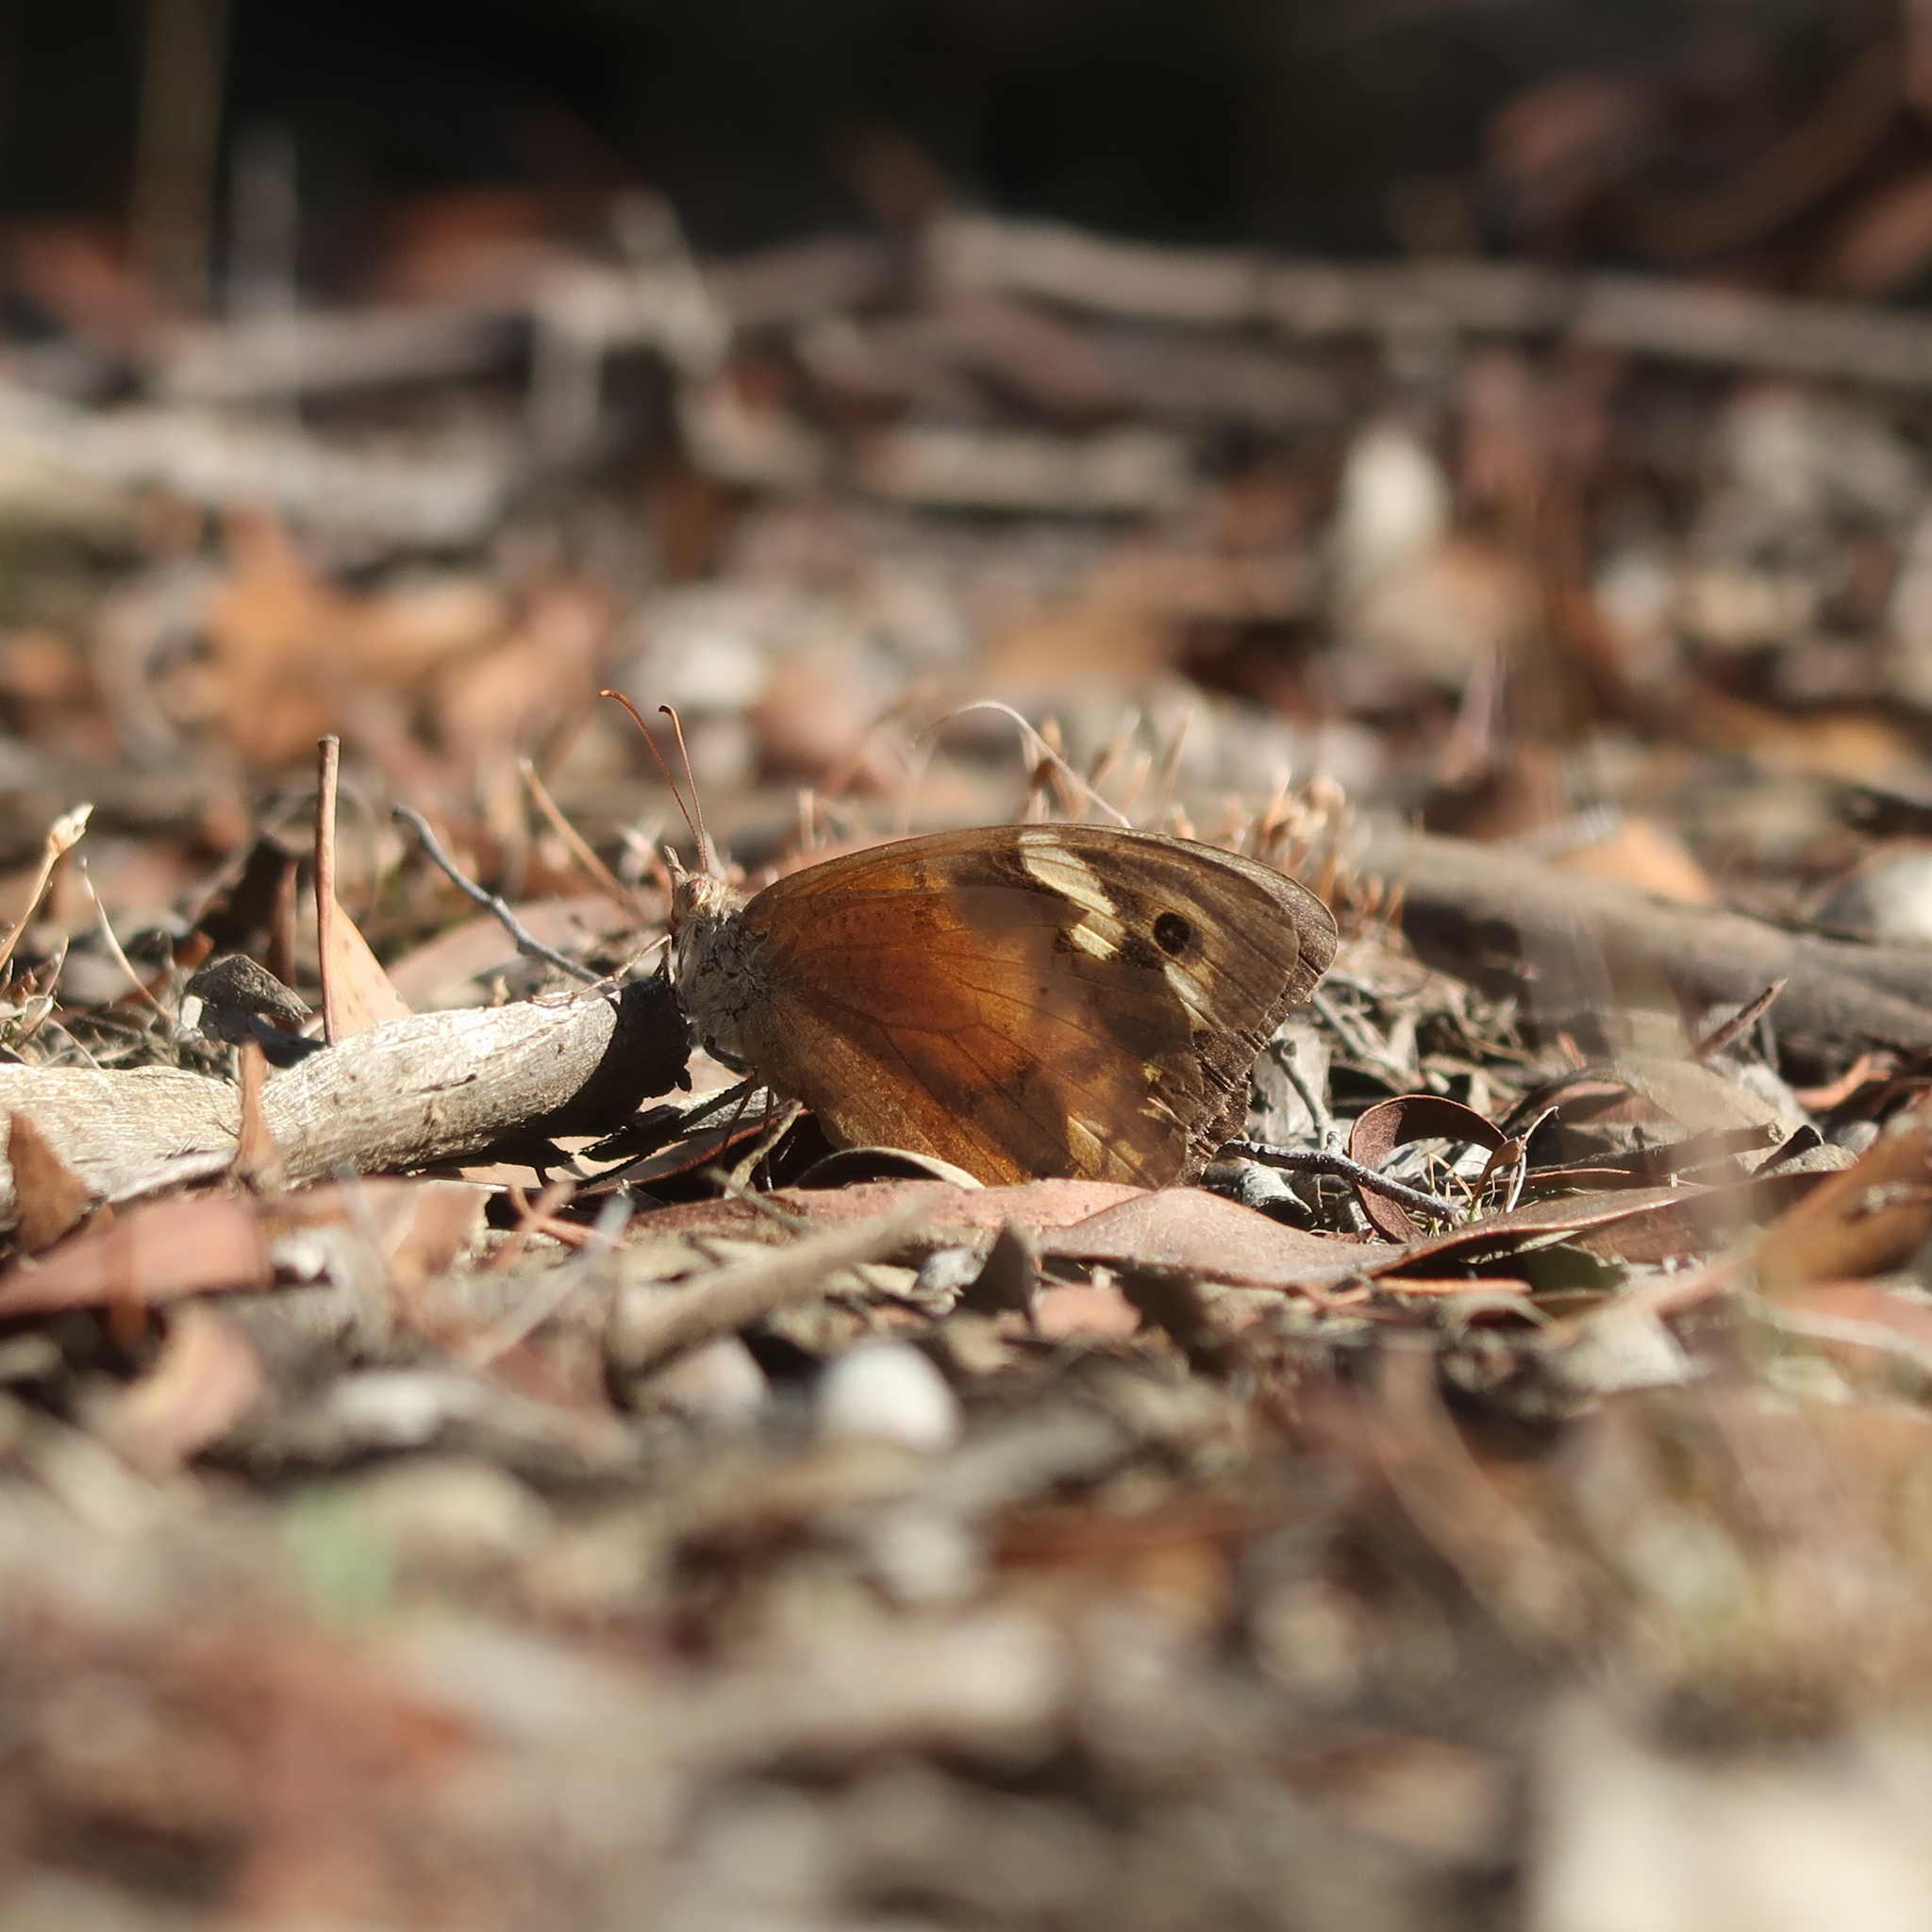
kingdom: Animalia
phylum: Arthropoda
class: Insecta
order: Lepidoptera
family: Nymphalidae
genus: Heteronympha
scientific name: Heteronympha merope
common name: Common brown
